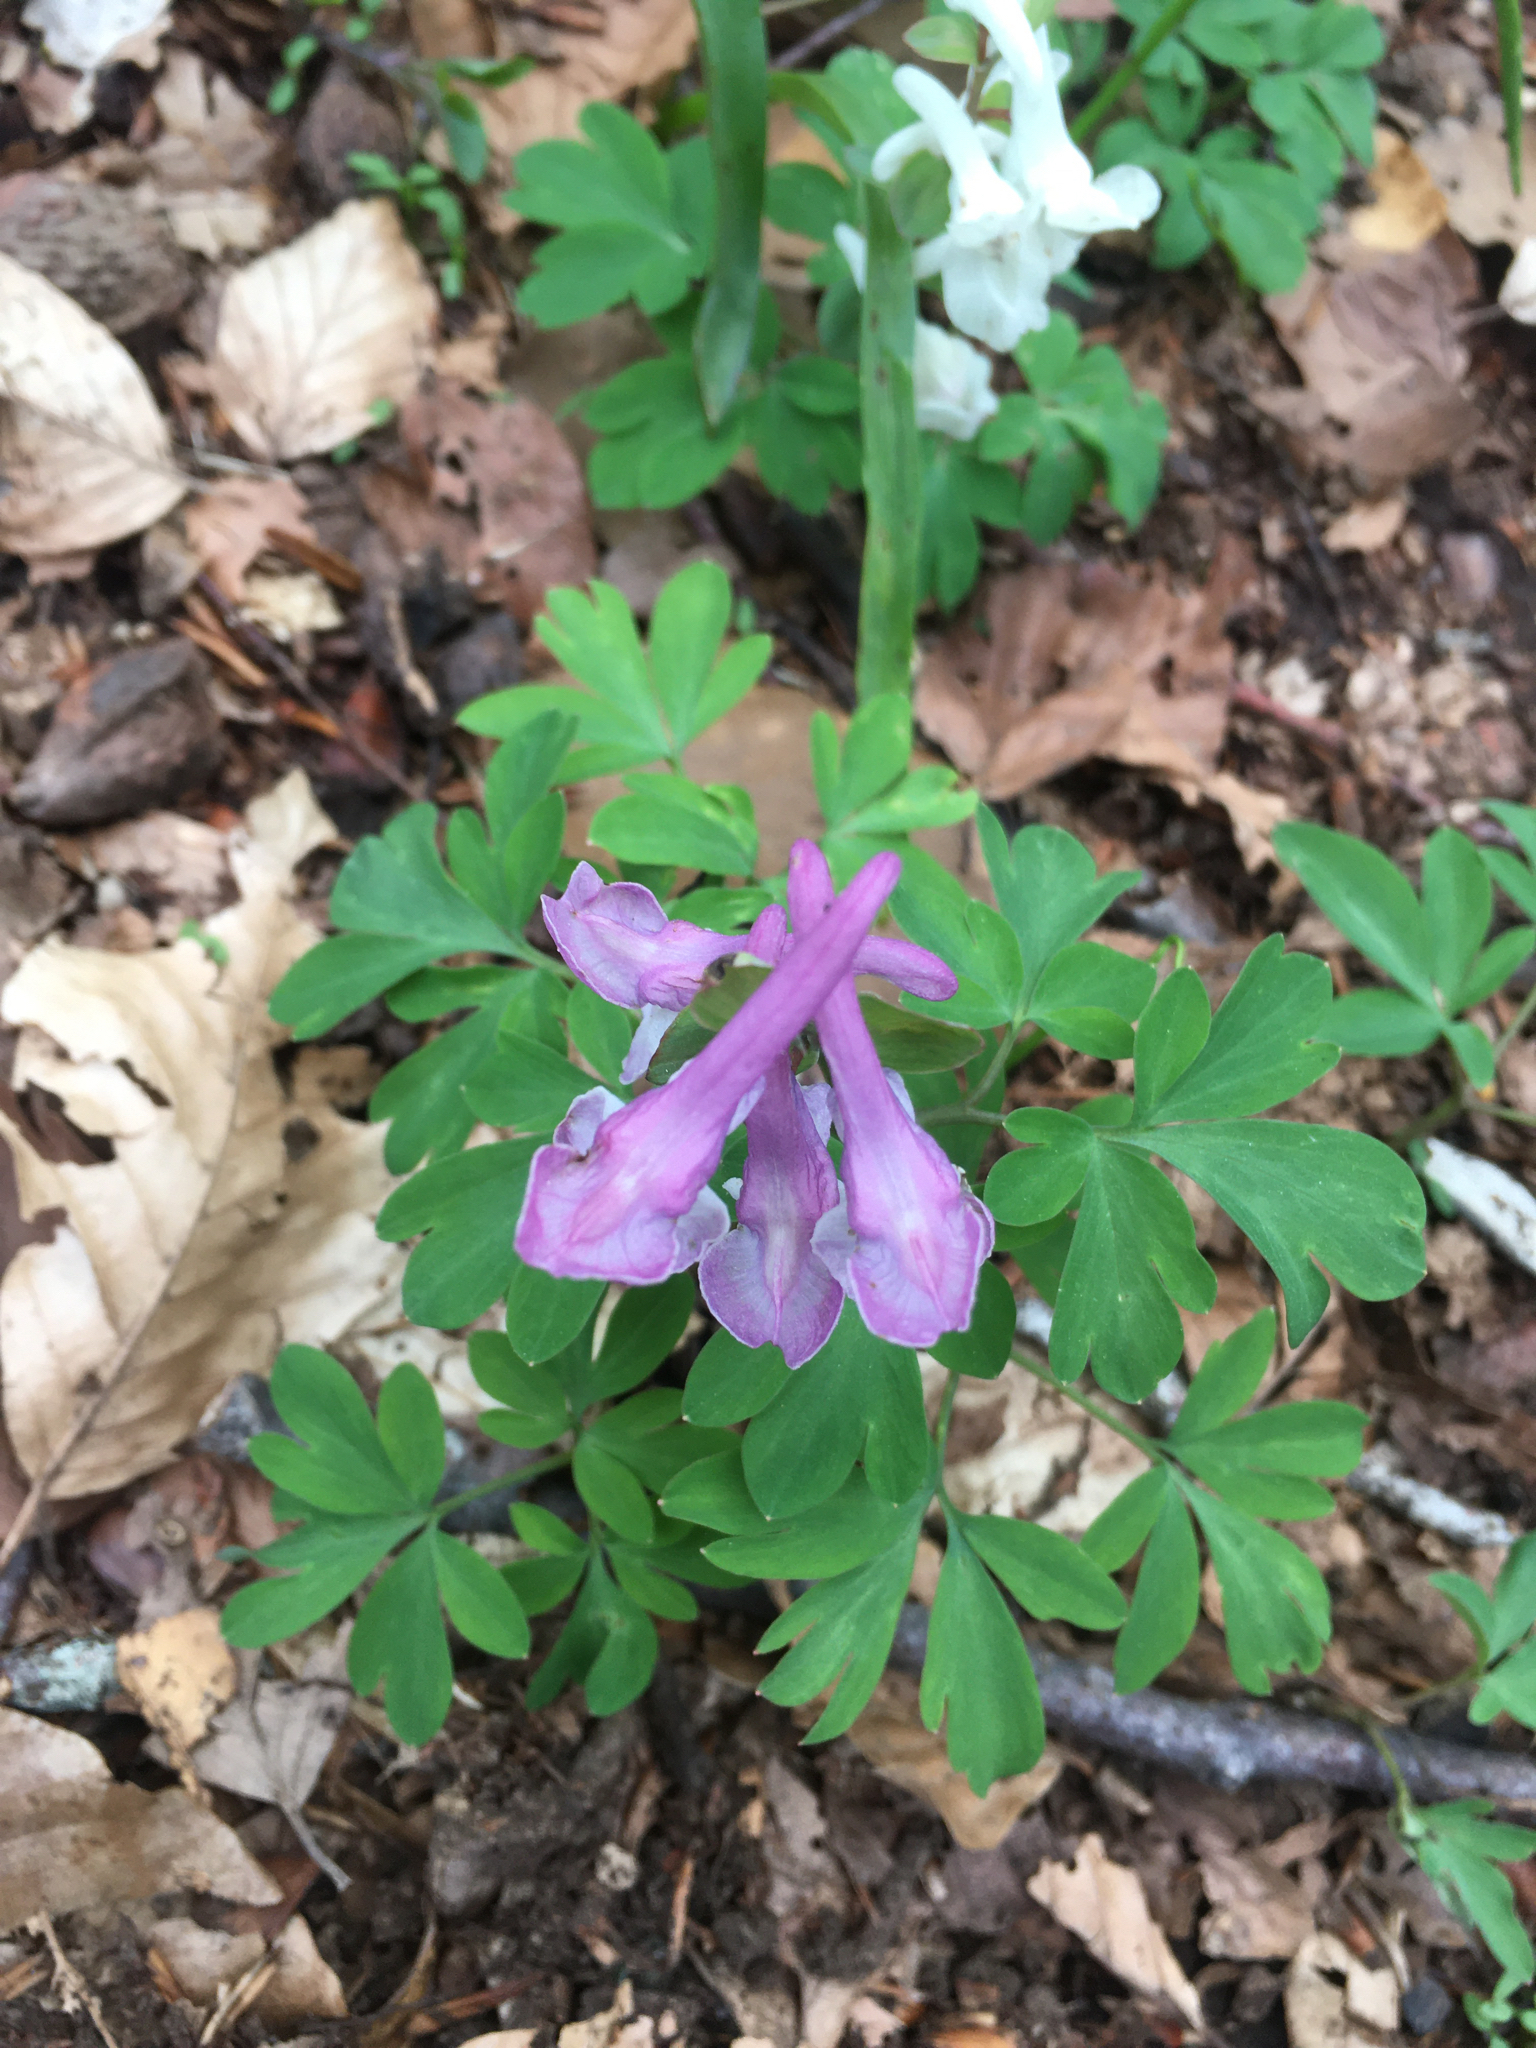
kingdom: Plantae
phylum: Tracheophyta
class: Magnoliopsida
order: Ranunculales
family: Papaveraceae
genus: Corydalis
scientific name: Corydalis cava
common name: Hollowroot
